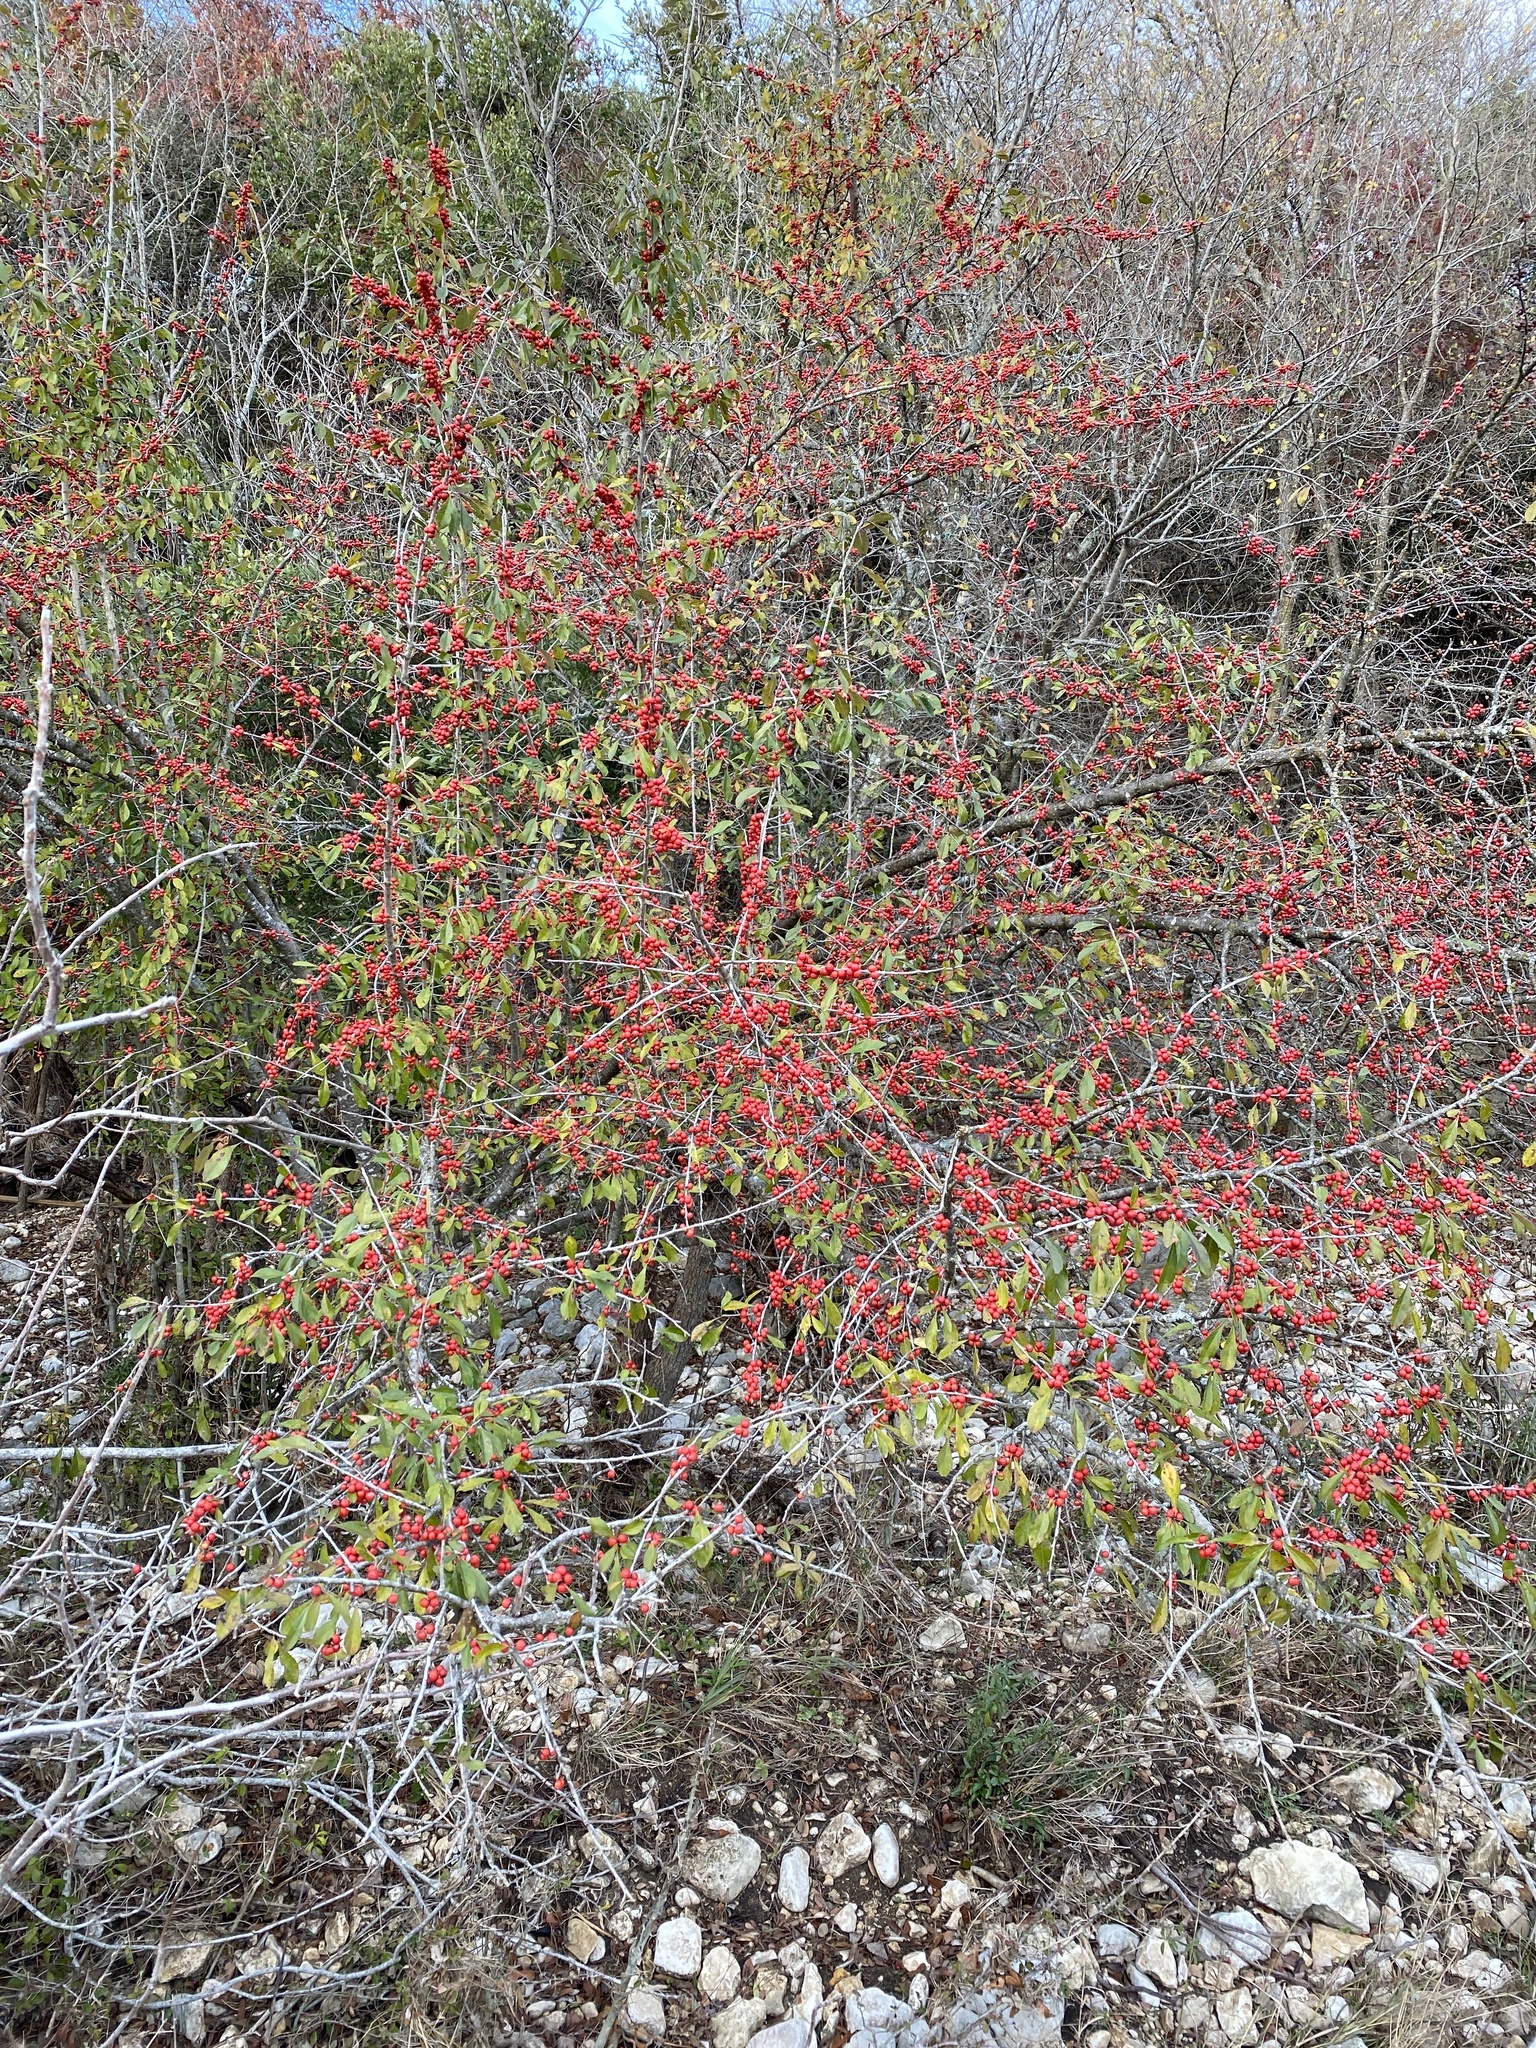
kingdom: Plantae
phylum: Tracheophyta
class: Magnoliopsida
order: Aquifoliales
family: Aquifoliaceae
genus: Ilex
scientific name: Ilex decidua
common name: Possum-haw
